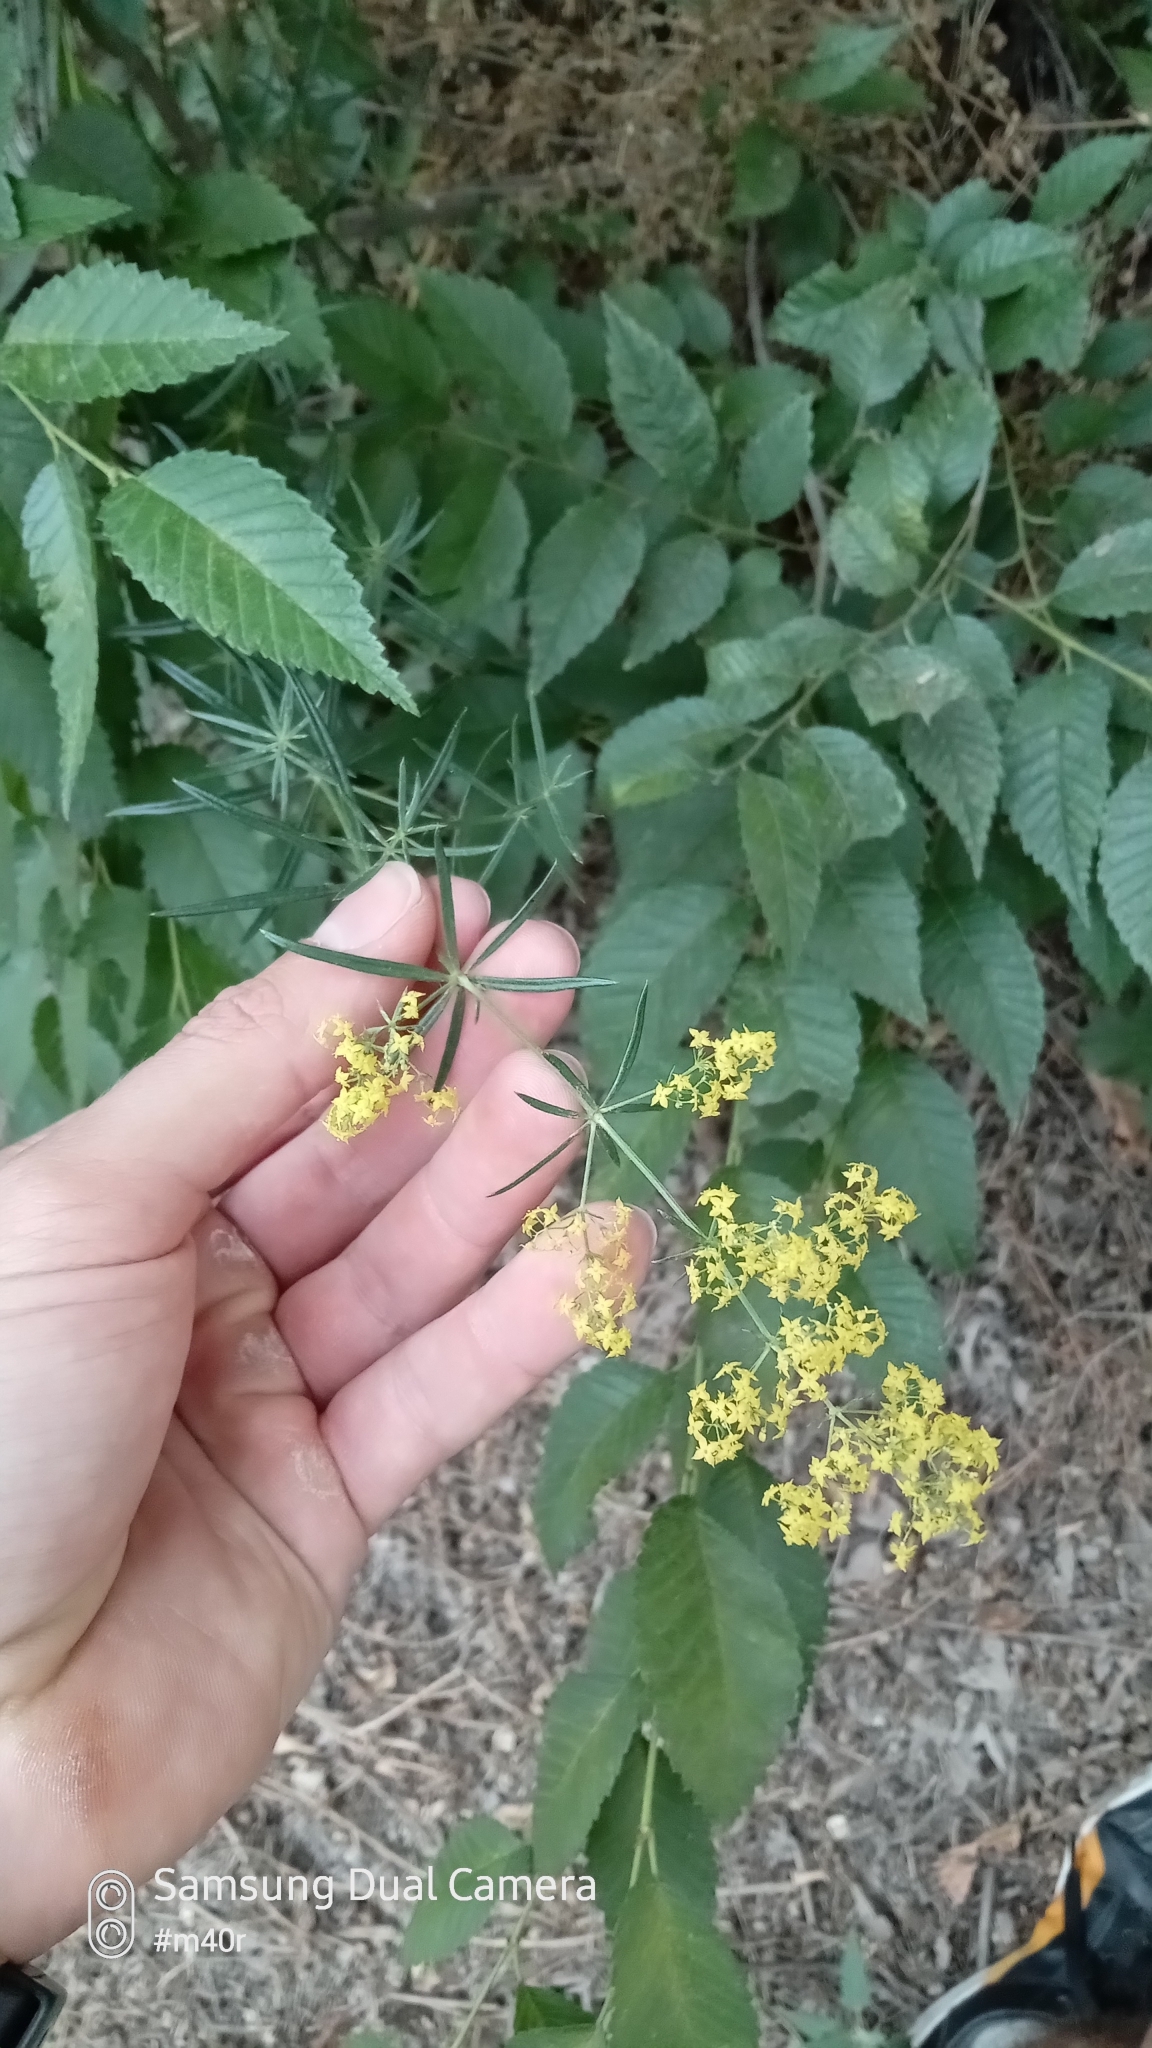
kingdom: Plantae
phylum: Tracheophyta
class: Magnoliopsida
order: Gentianales
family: Rubiaceae
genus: Galium
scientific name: Galium verum
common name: Lady's bedstraw
